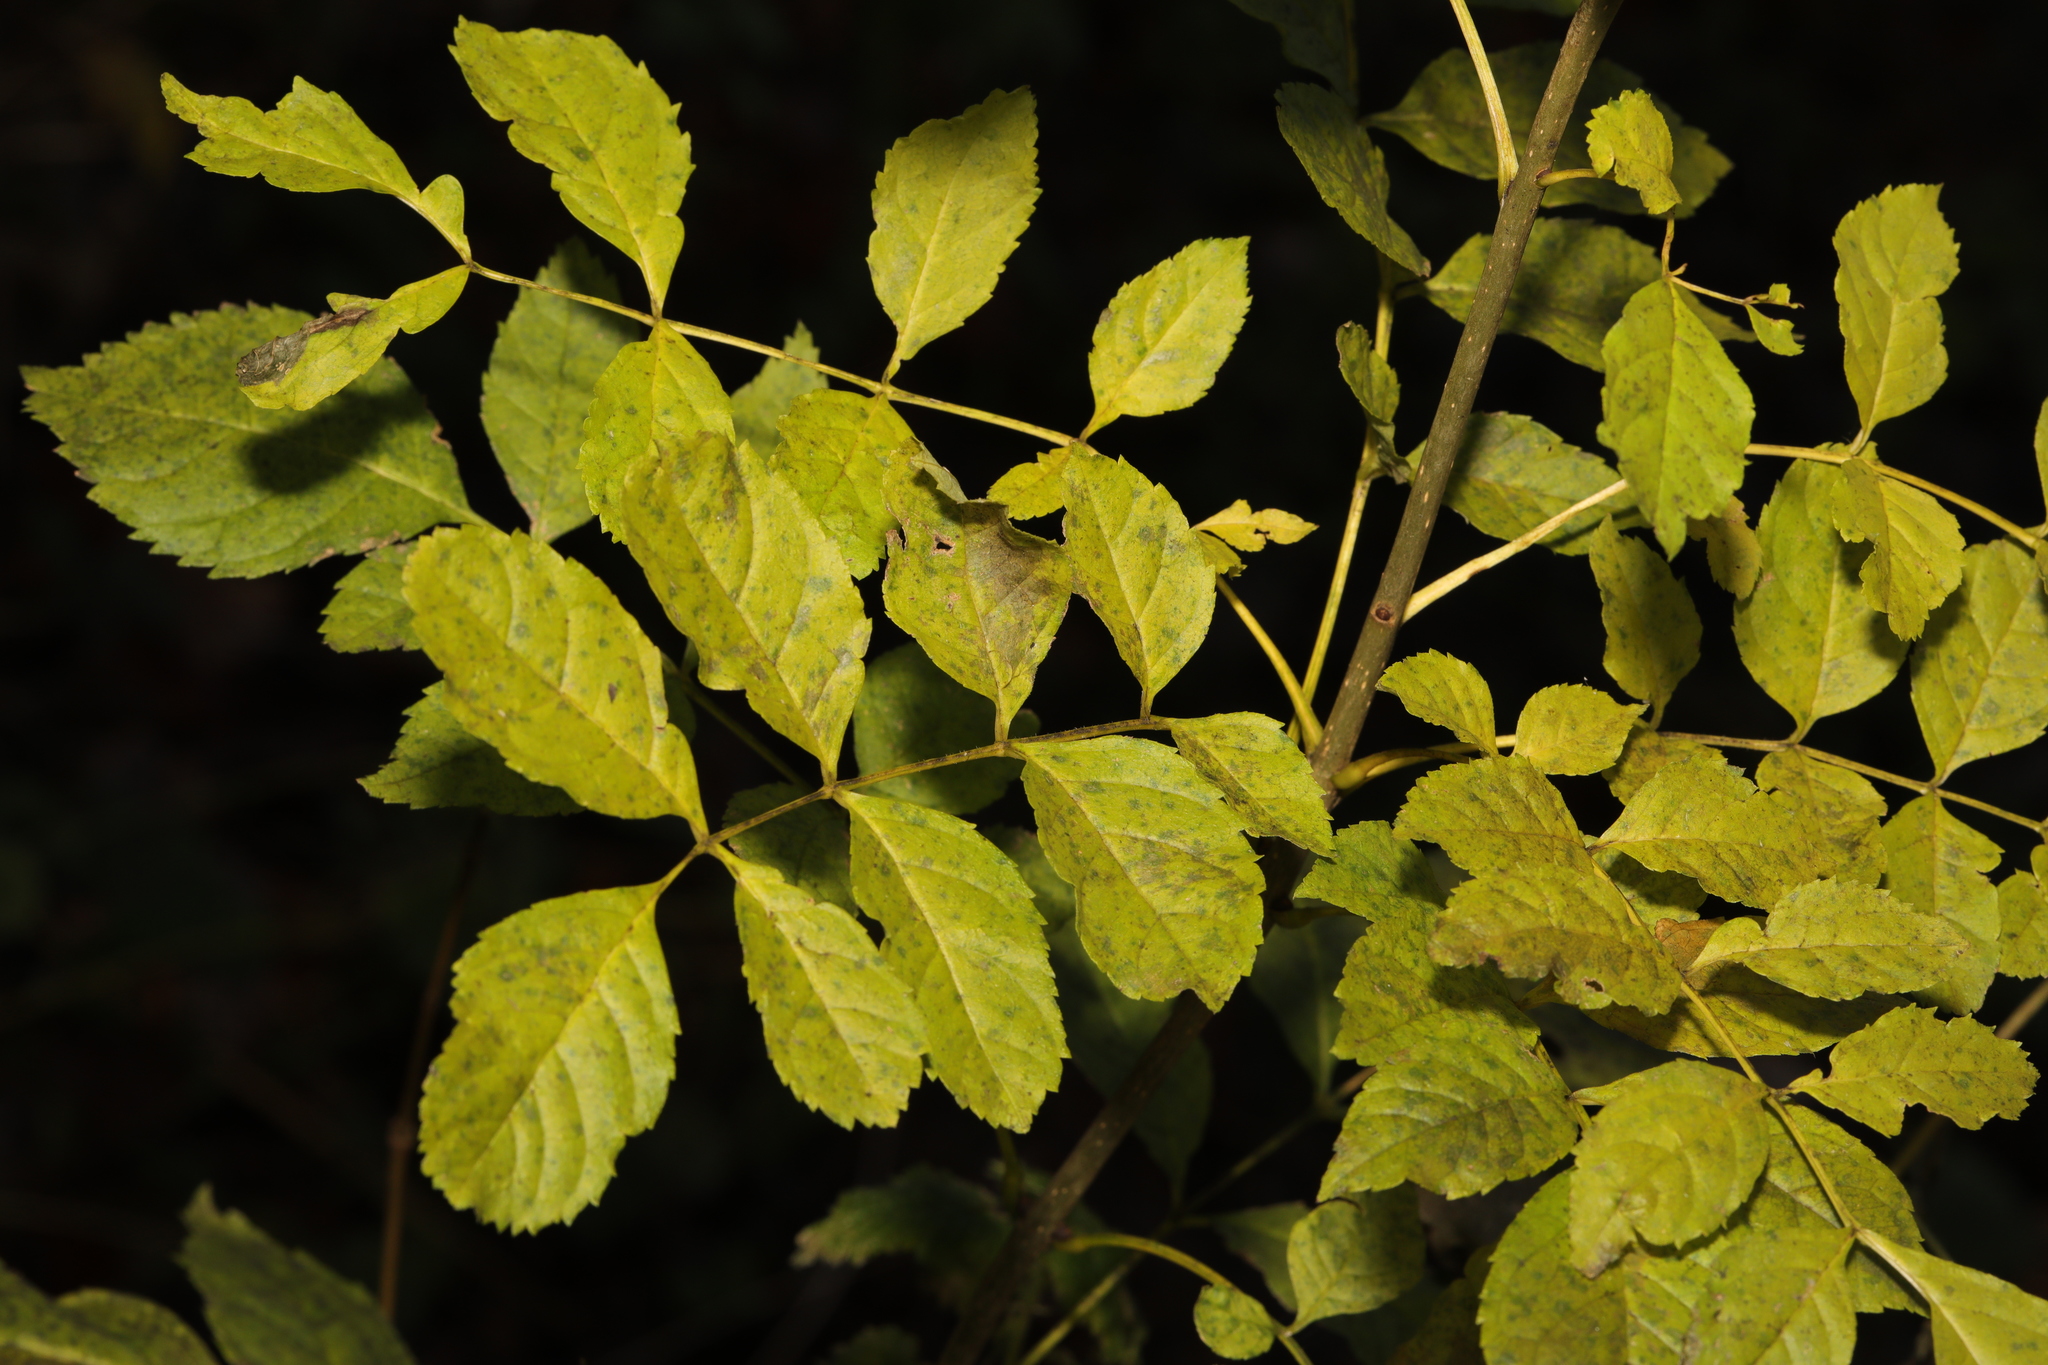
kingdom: Plantae
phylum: Tracheophyta
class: Magnoliopsida
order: Lamiales
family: Oleaceae
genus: Fraxinus
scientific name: Fraxinus excelsior
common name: European ash
